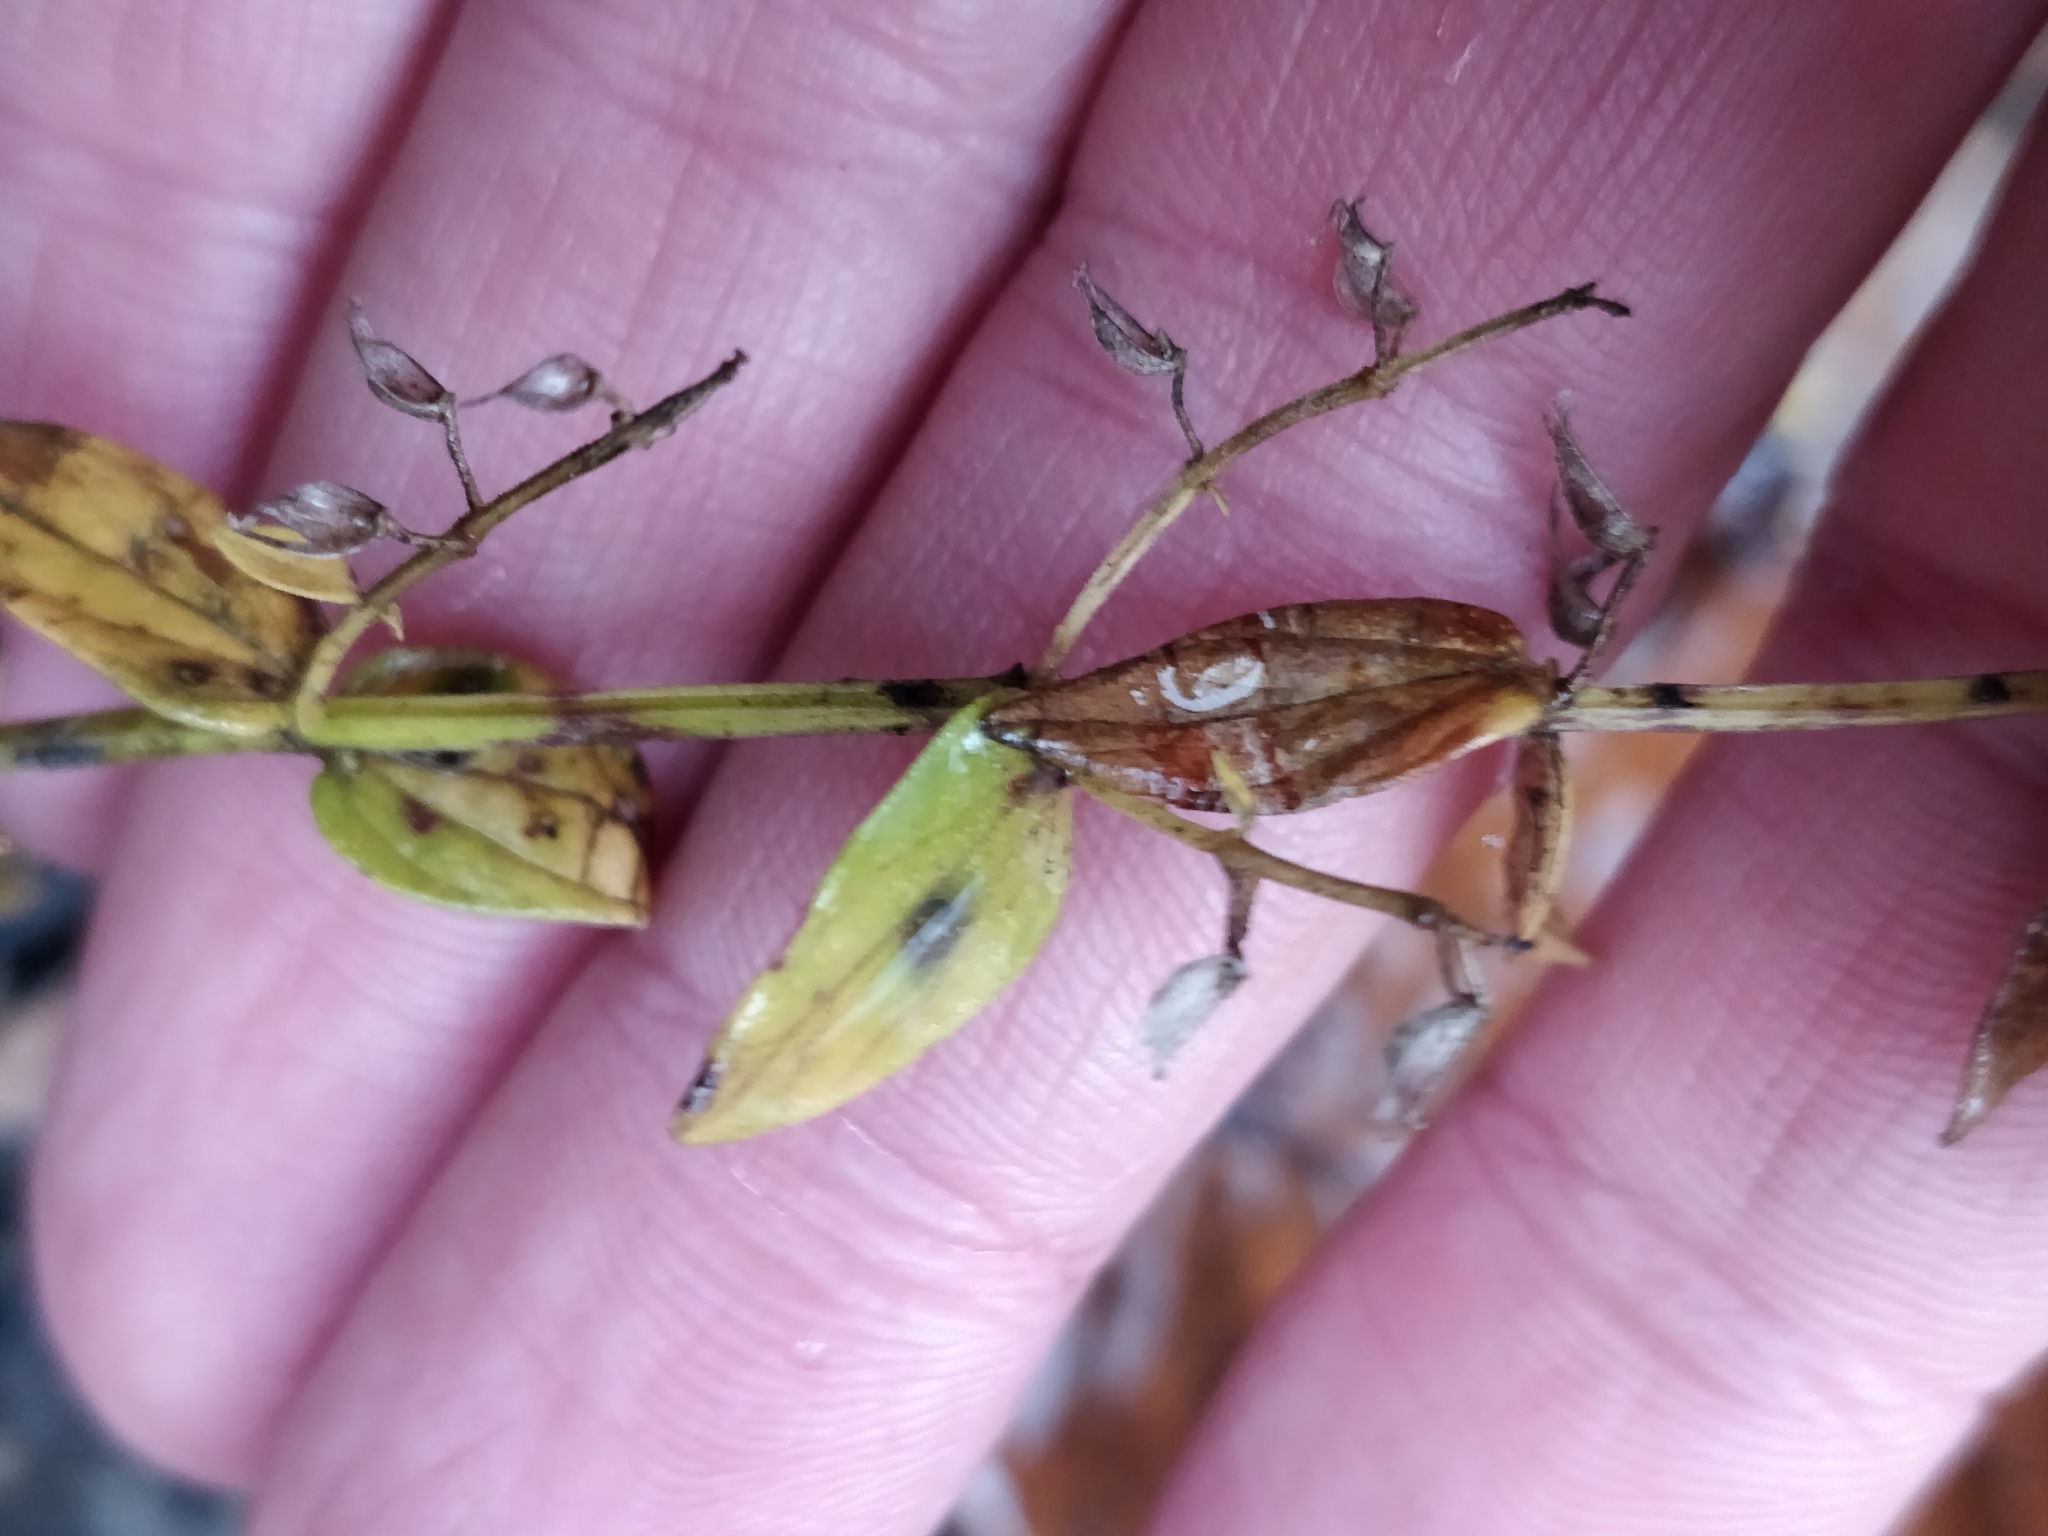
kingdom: Plantae
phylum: Tracheophyta
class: Magnoliopsida
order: Lamiales
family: Lamiaceae
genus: Scutellaria
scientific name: Scutellaria parvula
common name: Little scullcap
